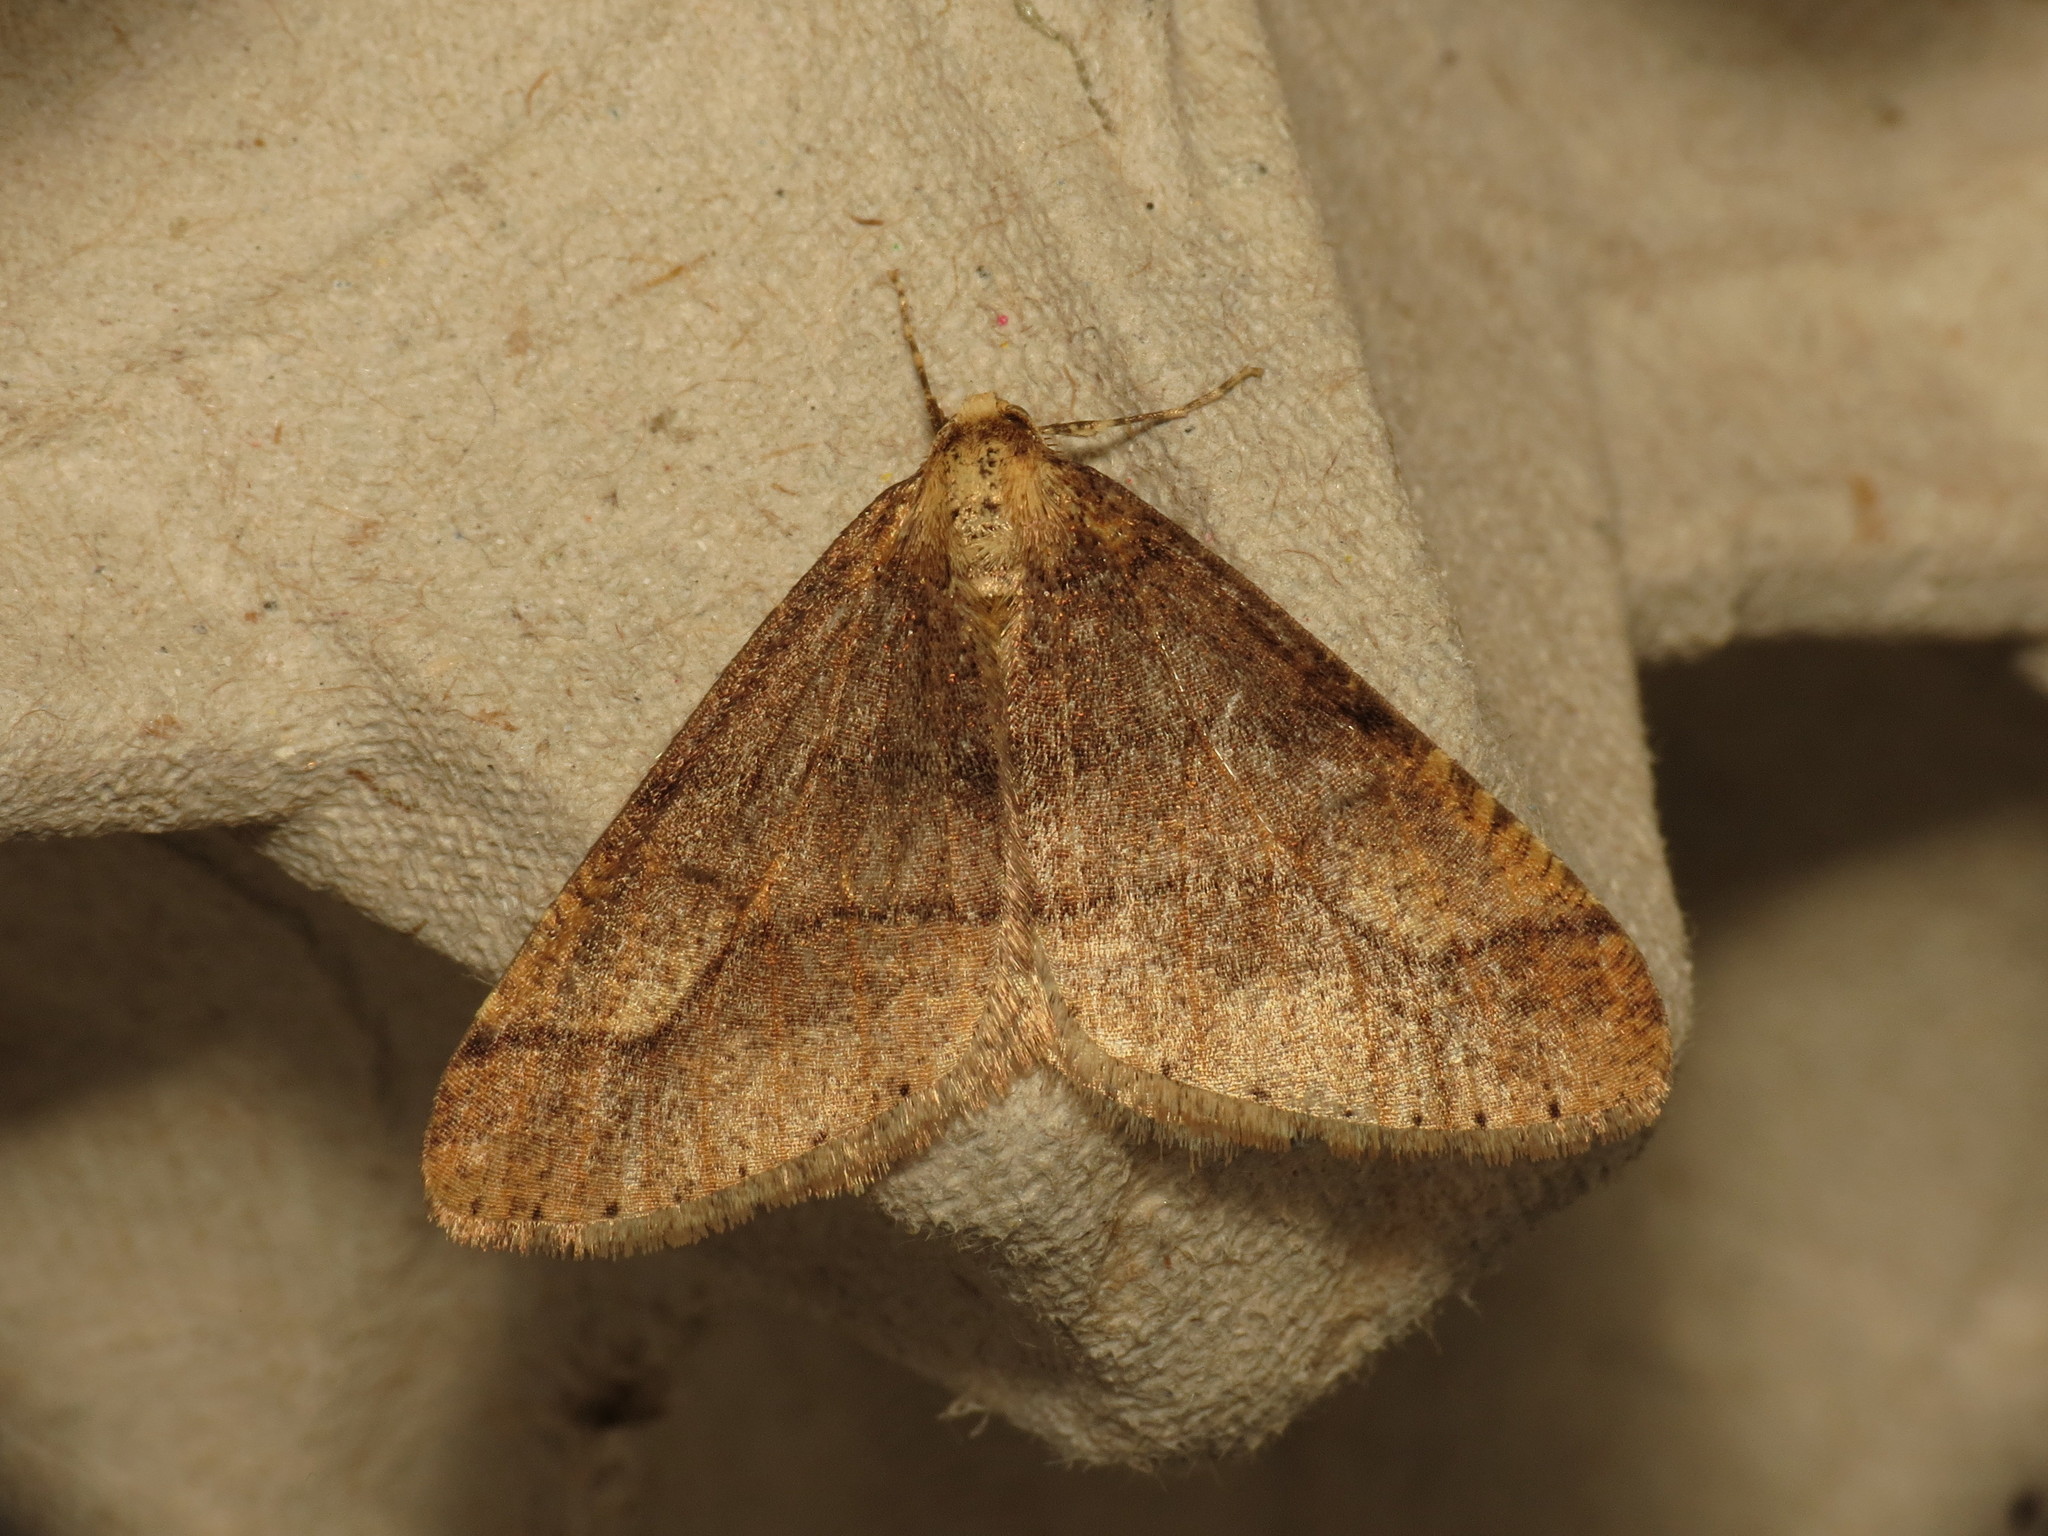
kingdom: Animalia
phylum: Arthropoda
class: Insecta
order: Lepidoptera
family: Geometridae
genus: Agriopis
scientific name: Agriopis marginaria
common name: Dotted border
